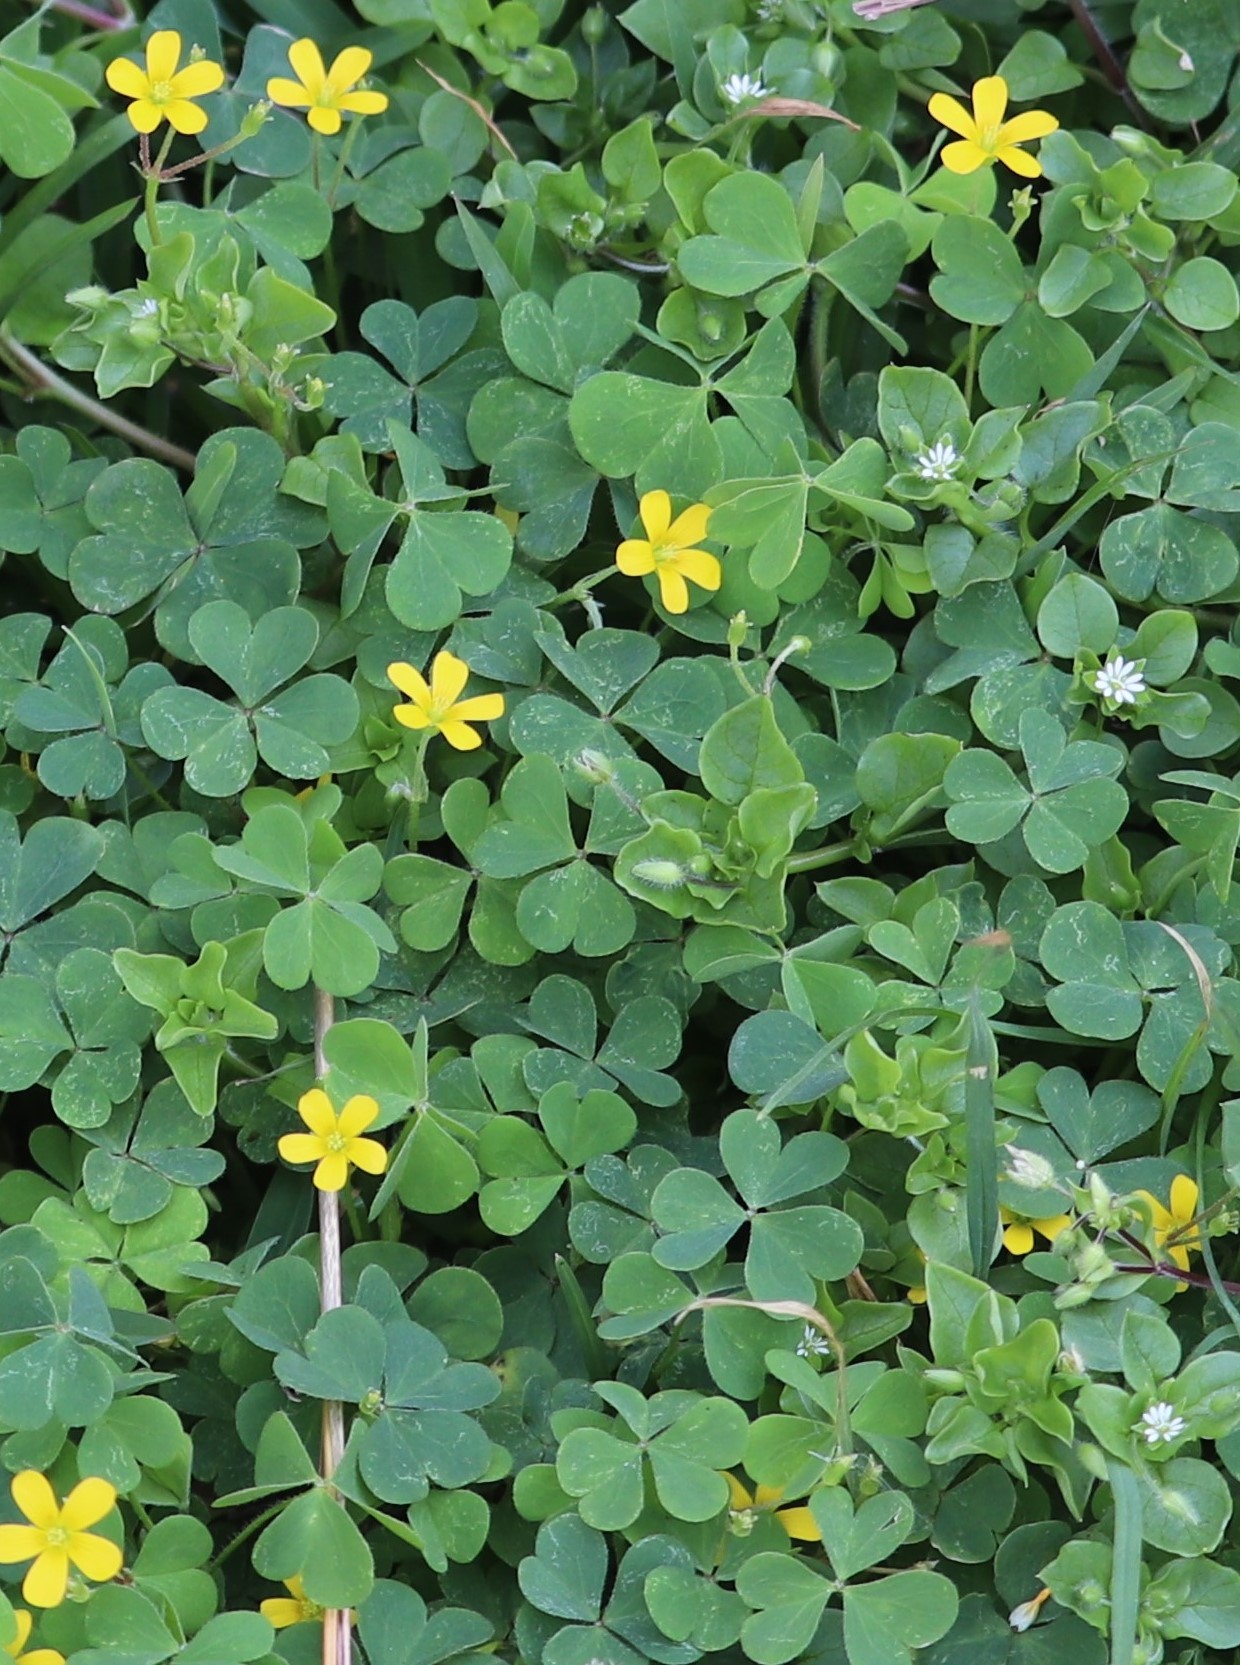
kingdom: Plantae
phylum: Tracheophyta
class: Magnoliopsida
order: Oxalidales
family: Oxalidaceae
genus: Oxalis
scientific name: Oxalis corniculata
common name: Procumbent yellow-sorrel
